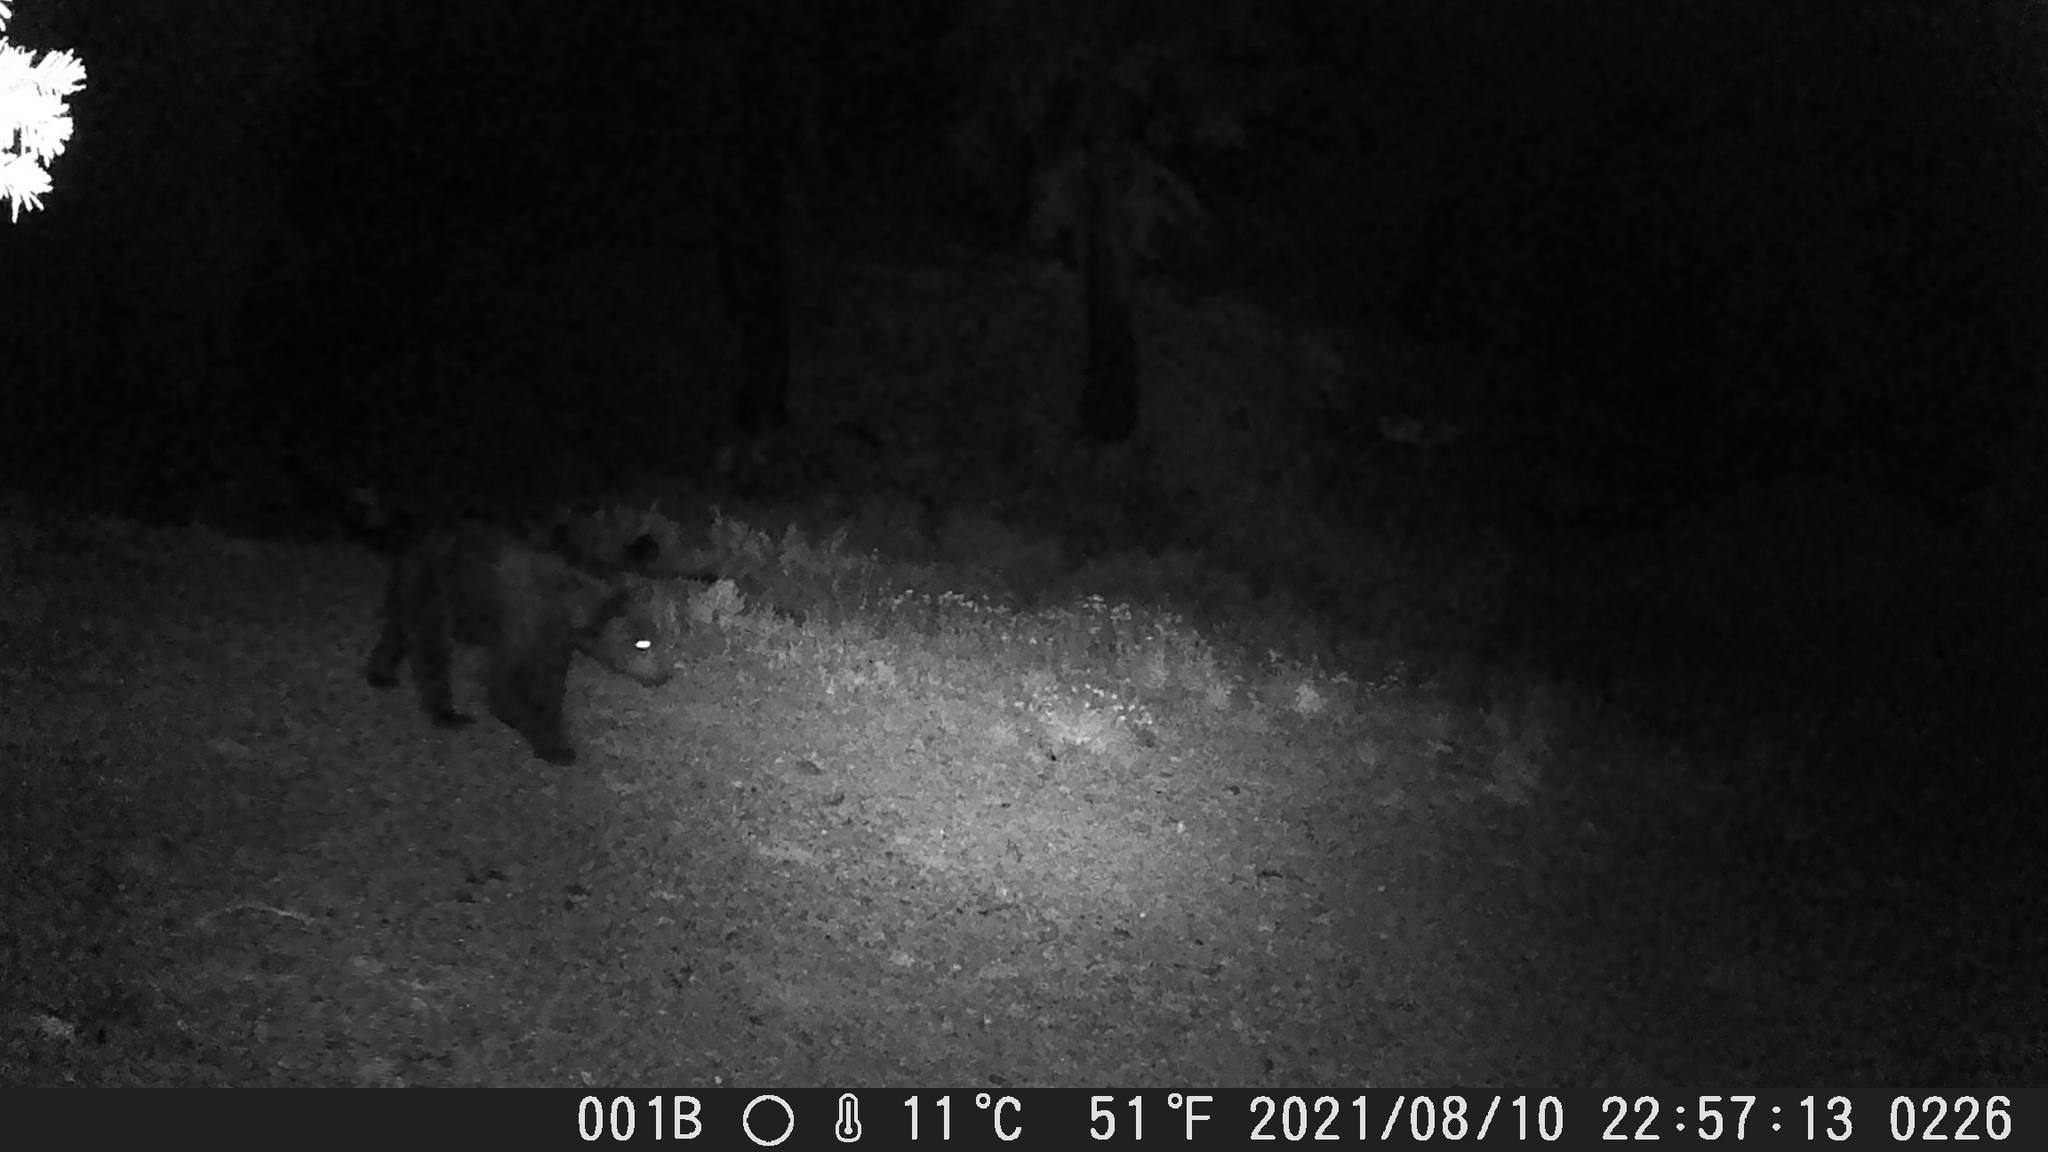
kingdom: Animalia
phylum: Chordata
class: Mammalia
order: Carnivora
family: Ursidae
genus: Ursus
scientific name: Ursus americanus
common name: American black bear
